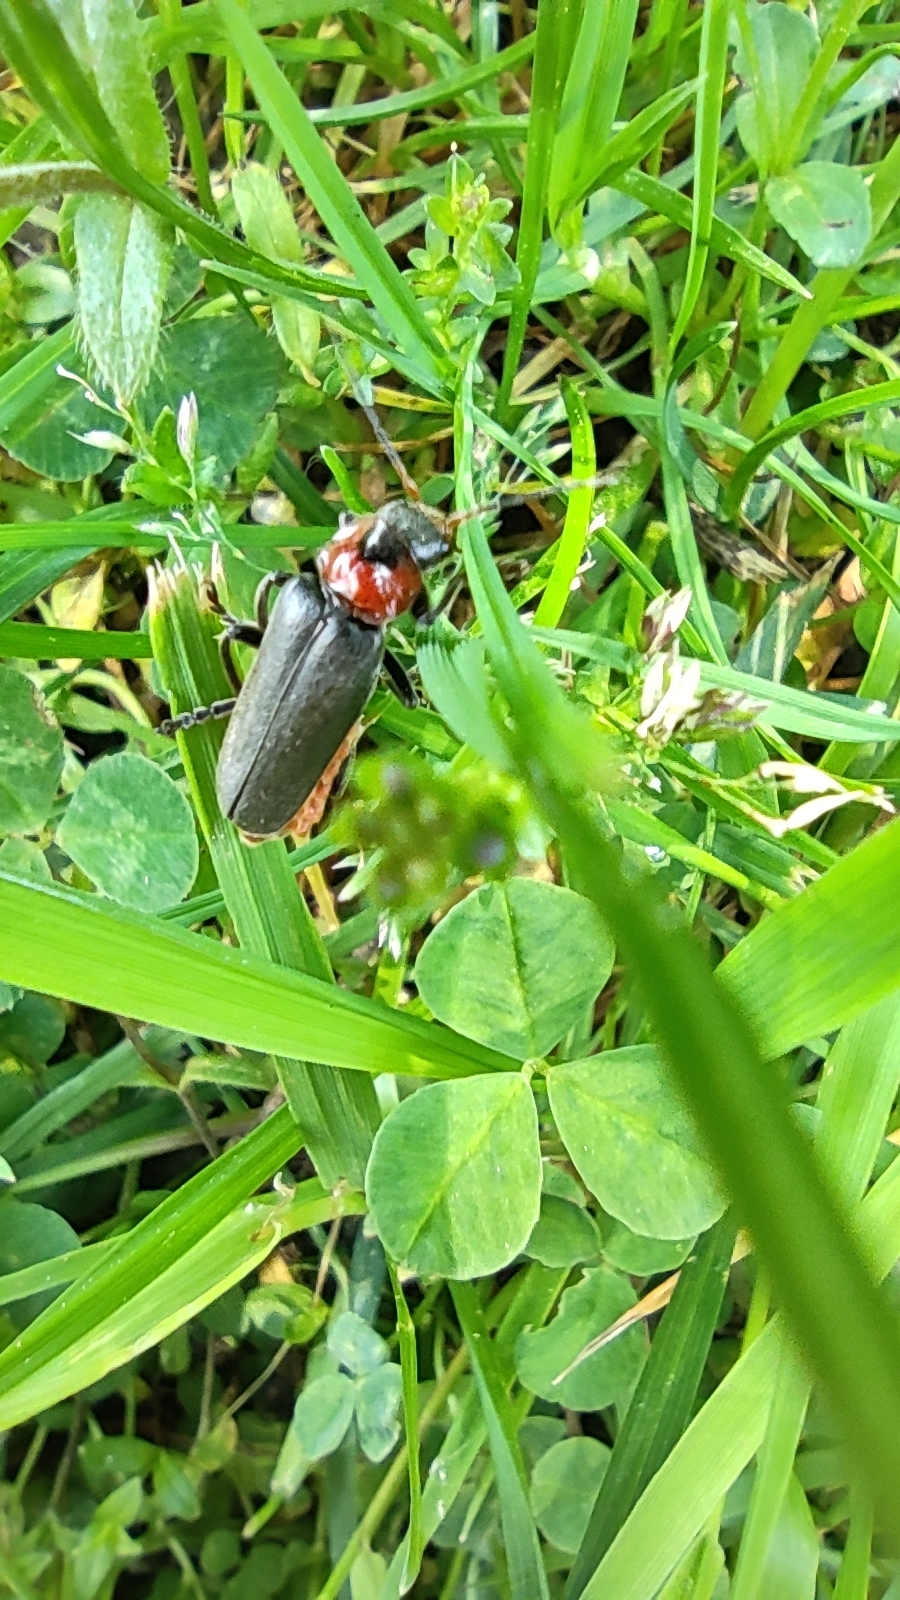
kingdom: Animalia
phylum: Arthropoda
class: Insecta
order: Coleoptera
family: Cantharidae
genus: Cantharis
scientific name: Cantharis fusca
